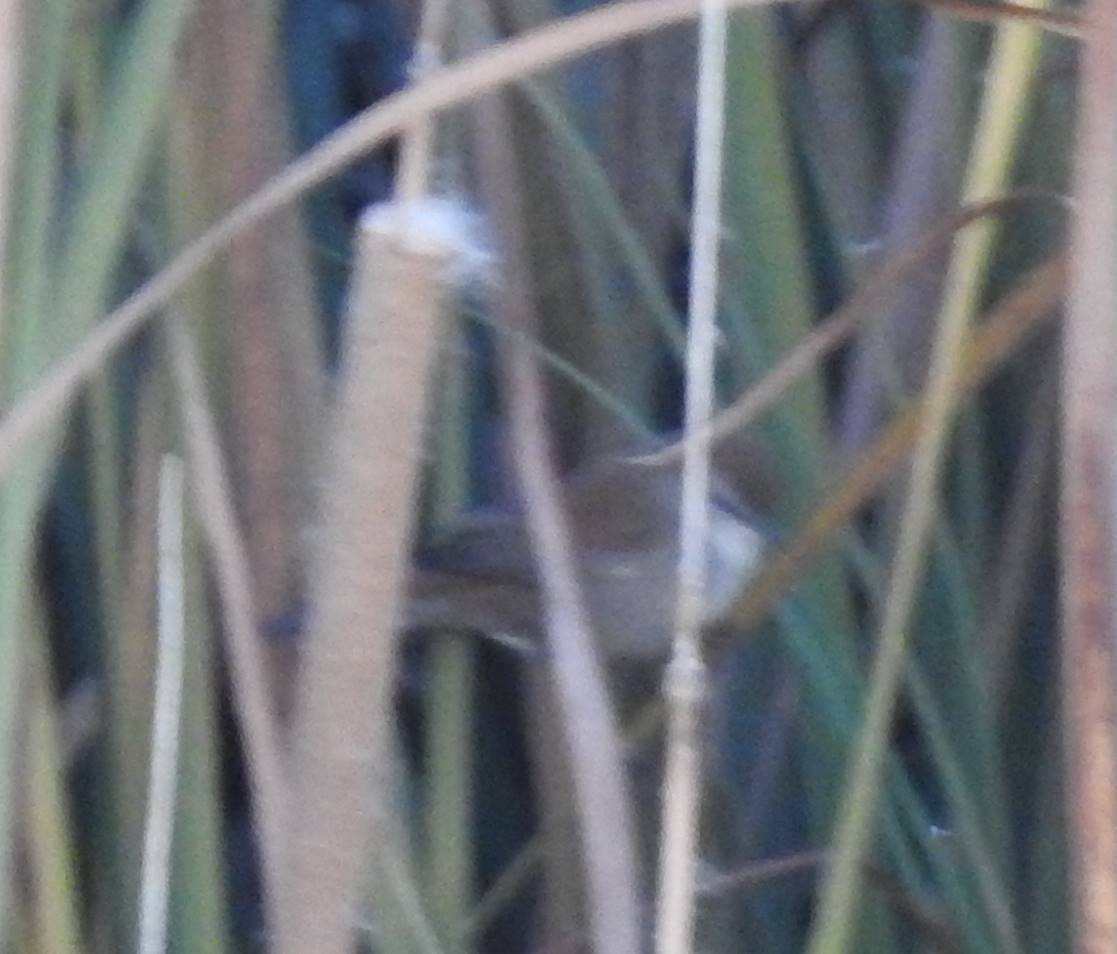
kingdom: Animalia
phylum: Chordata
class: Aves
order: Passeriformes
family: Cettiidae
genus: Cettia
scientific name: Cettia cetti
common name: Cetti's warbler
